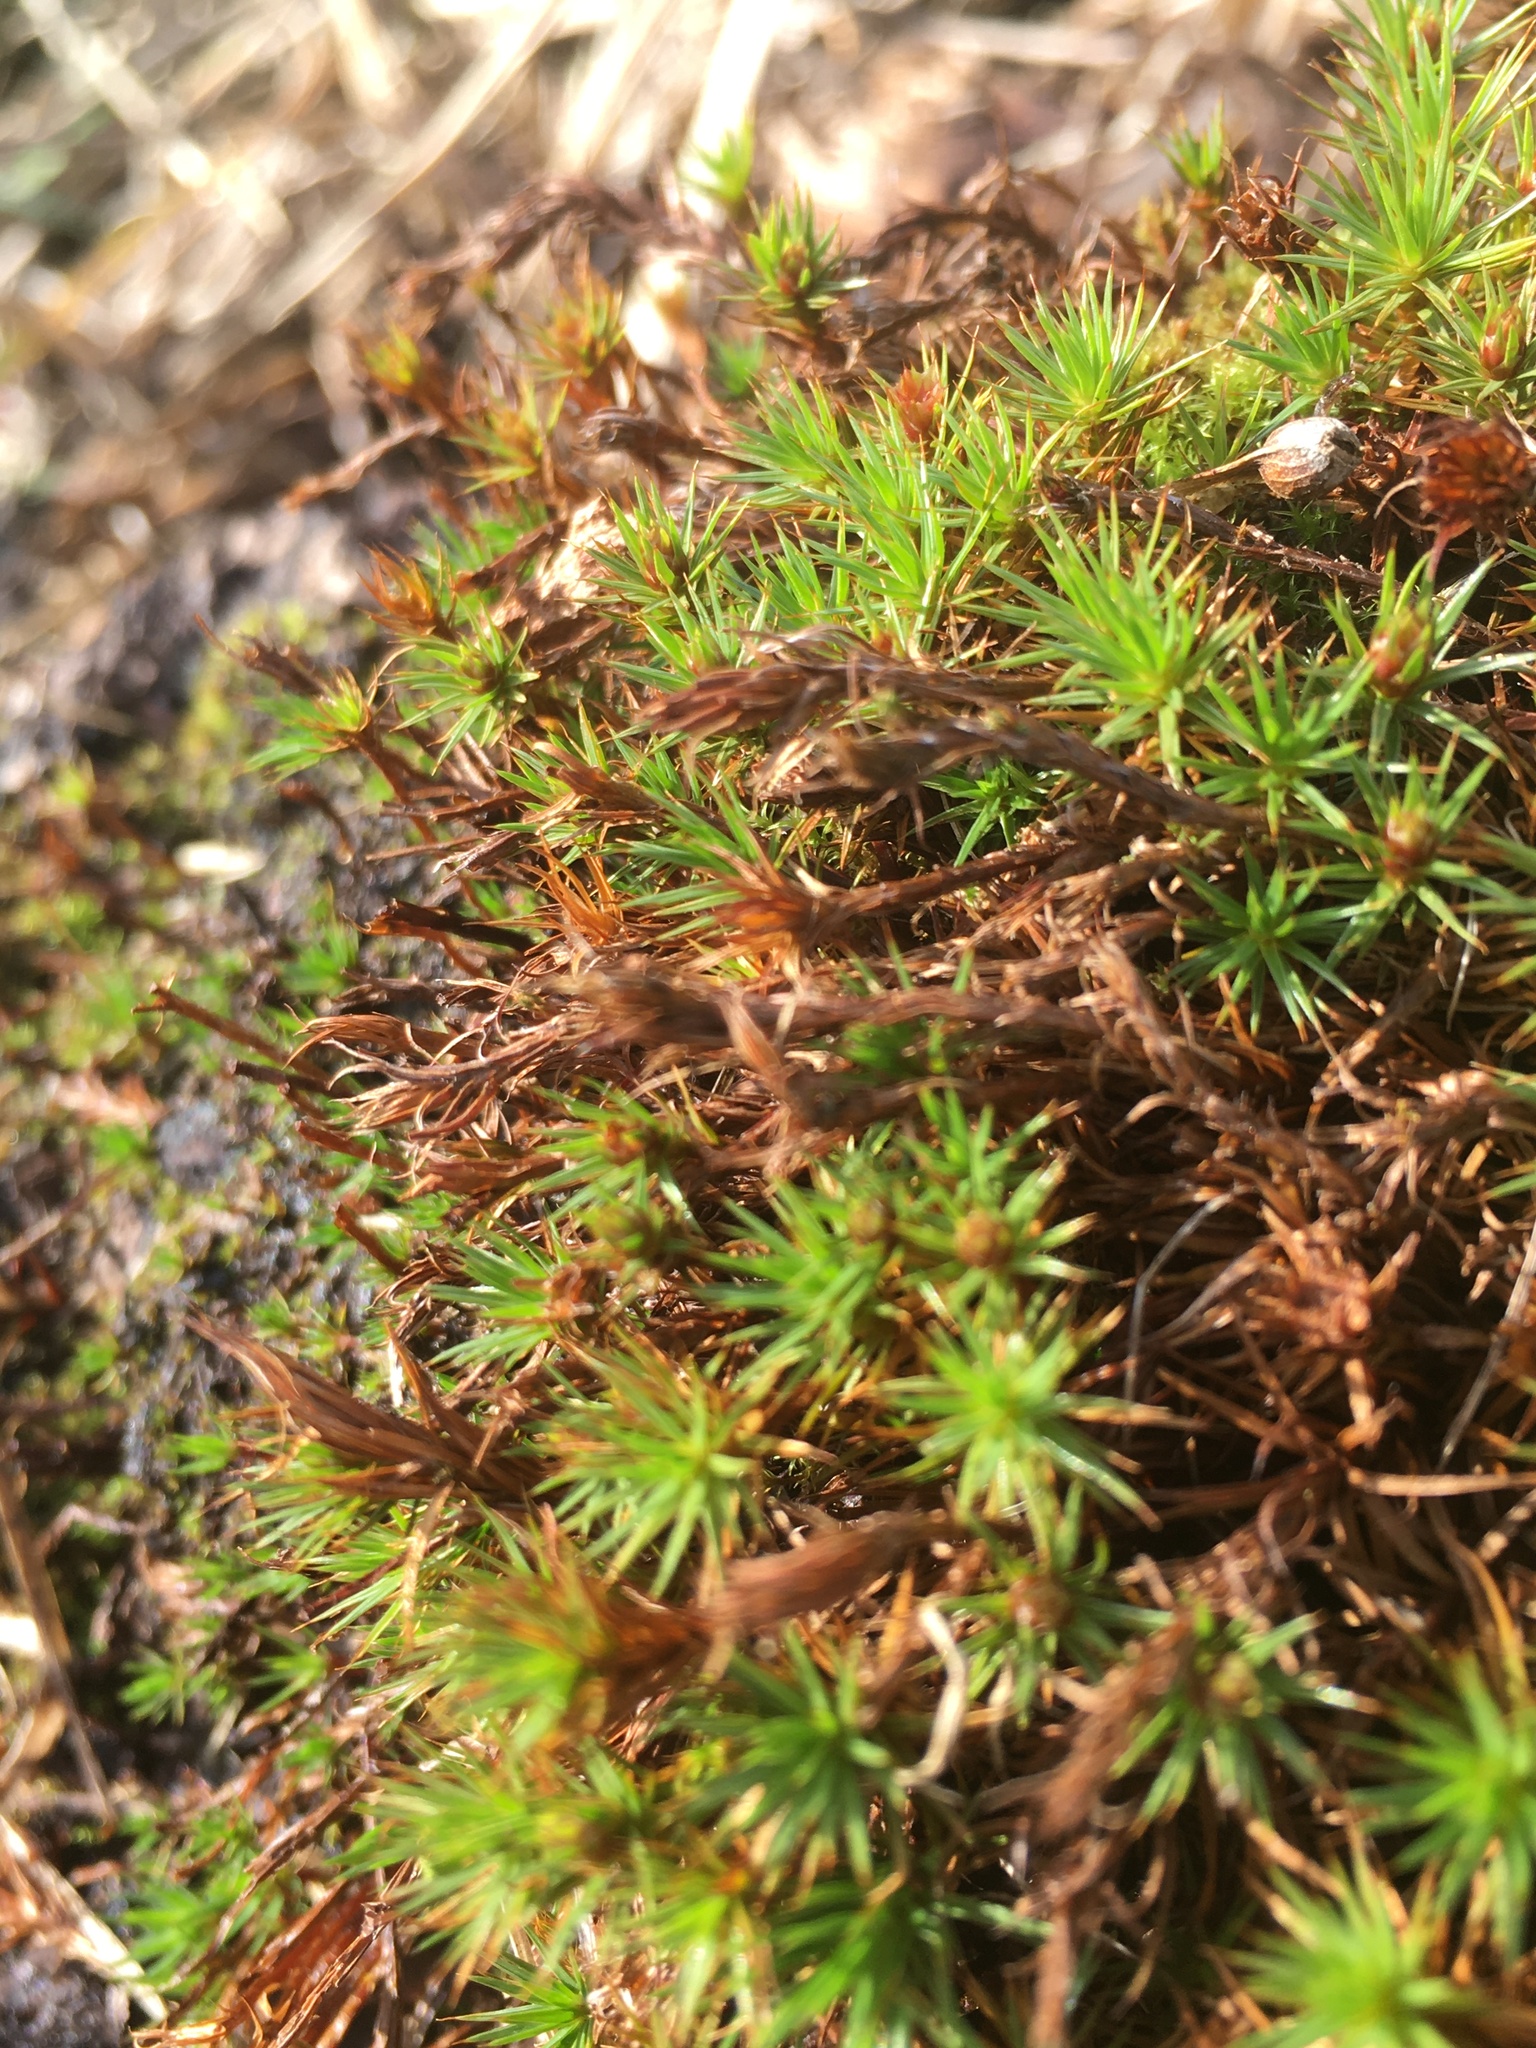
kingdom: Plantae
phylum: Bryophyta
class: Polytrichopsida
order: Polytrichales
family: Polytrichaceae
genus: Polytrichum
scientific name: Polytrichum juniperinum
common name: Juniper haircap moss
